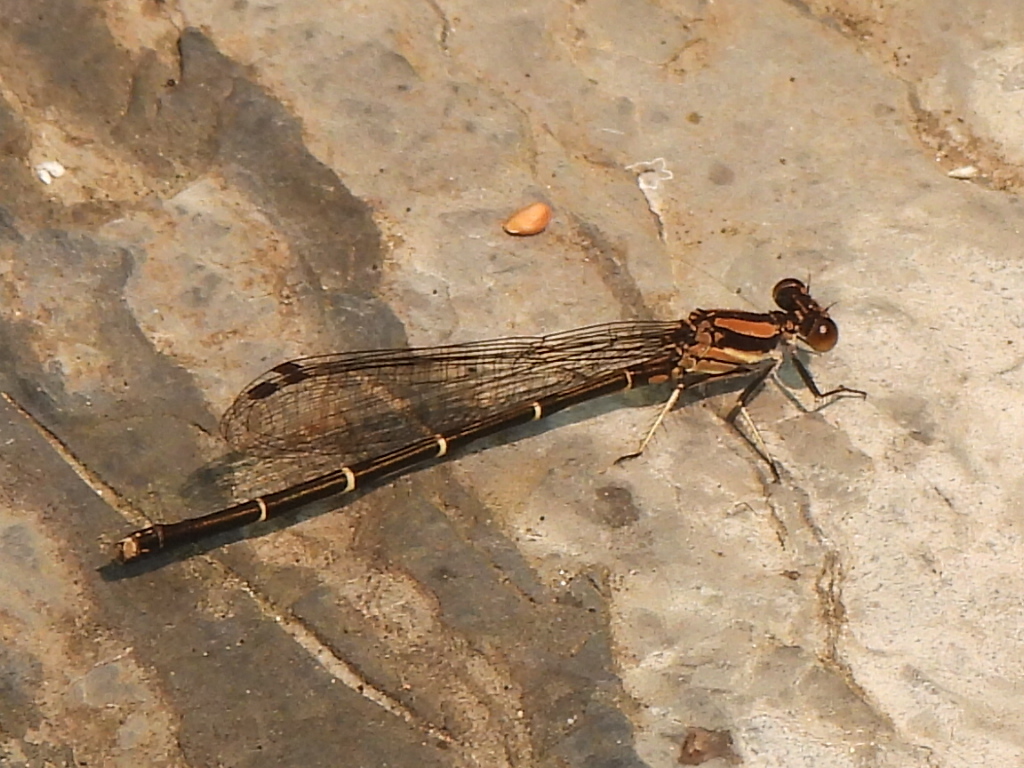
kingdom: Animalia
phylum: Arthropoda
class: Insecta
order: Odonata
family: Coenagrionidae
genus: Argia
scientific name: Argia tibialis
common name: Blue-tipped dancer
